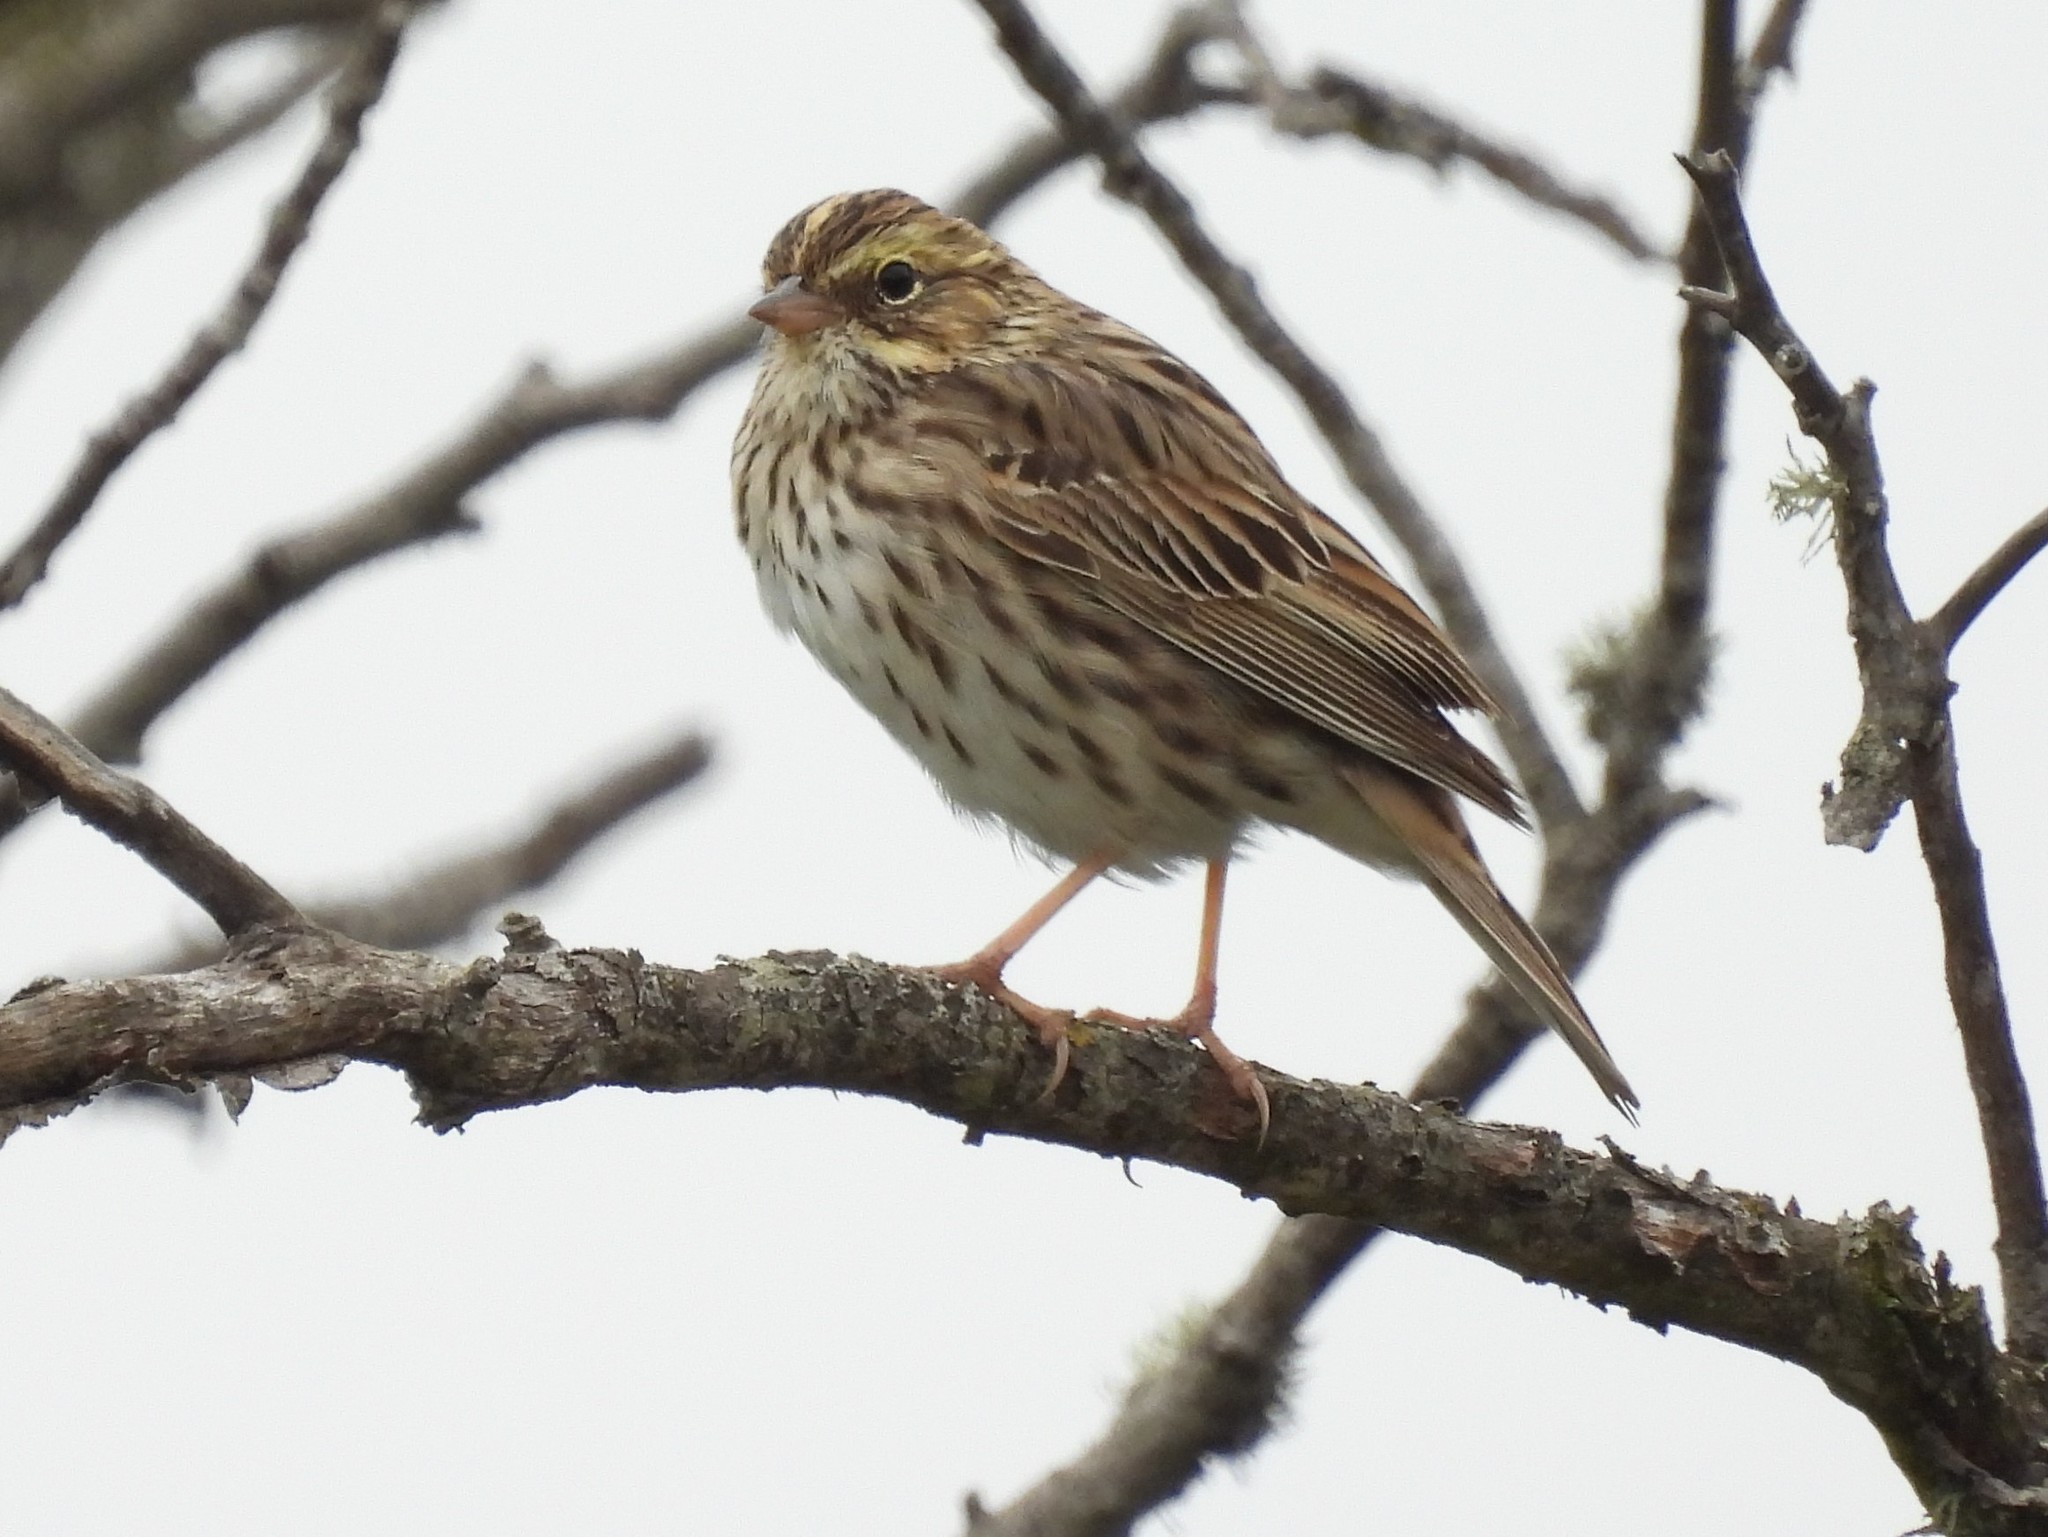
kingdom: Animalia
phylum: Chordata
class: Aves
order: Passeriformes
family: Passerellidae
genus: Passerculus
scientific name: Passerculus sandwichensis
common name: Savannah sparrow
